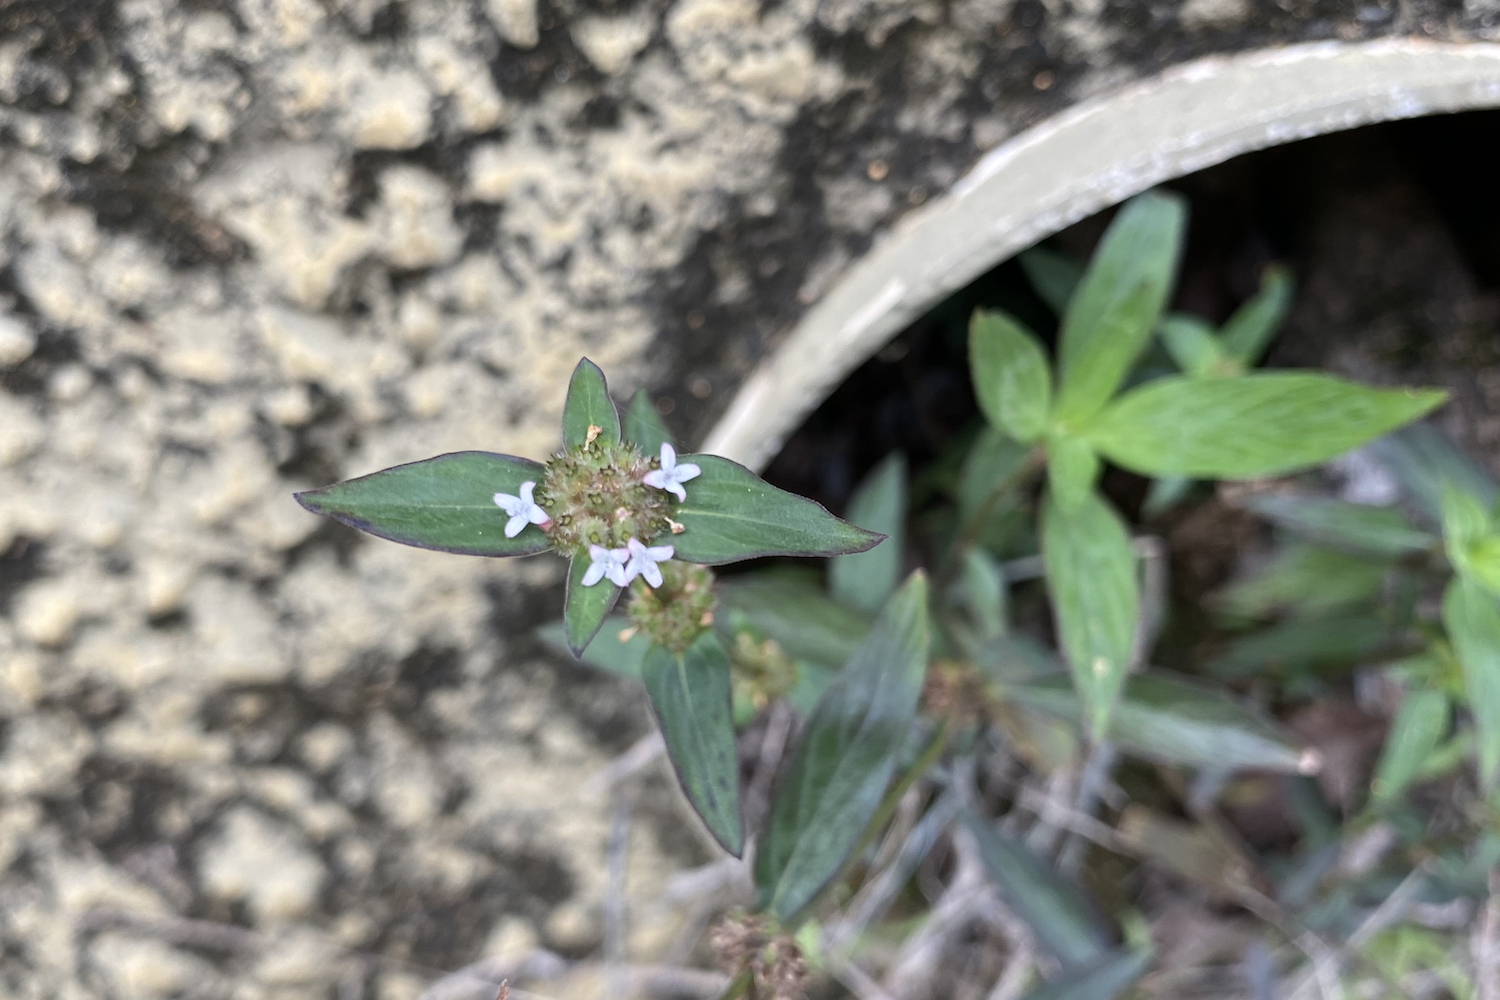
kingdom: Plantae
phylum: Tracheophyta
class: Magnoliopsida
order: Gentianales
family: Rubiaceae
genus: Spermacoce
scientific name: Spermacoce remota
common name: Woodland false buttonweed
